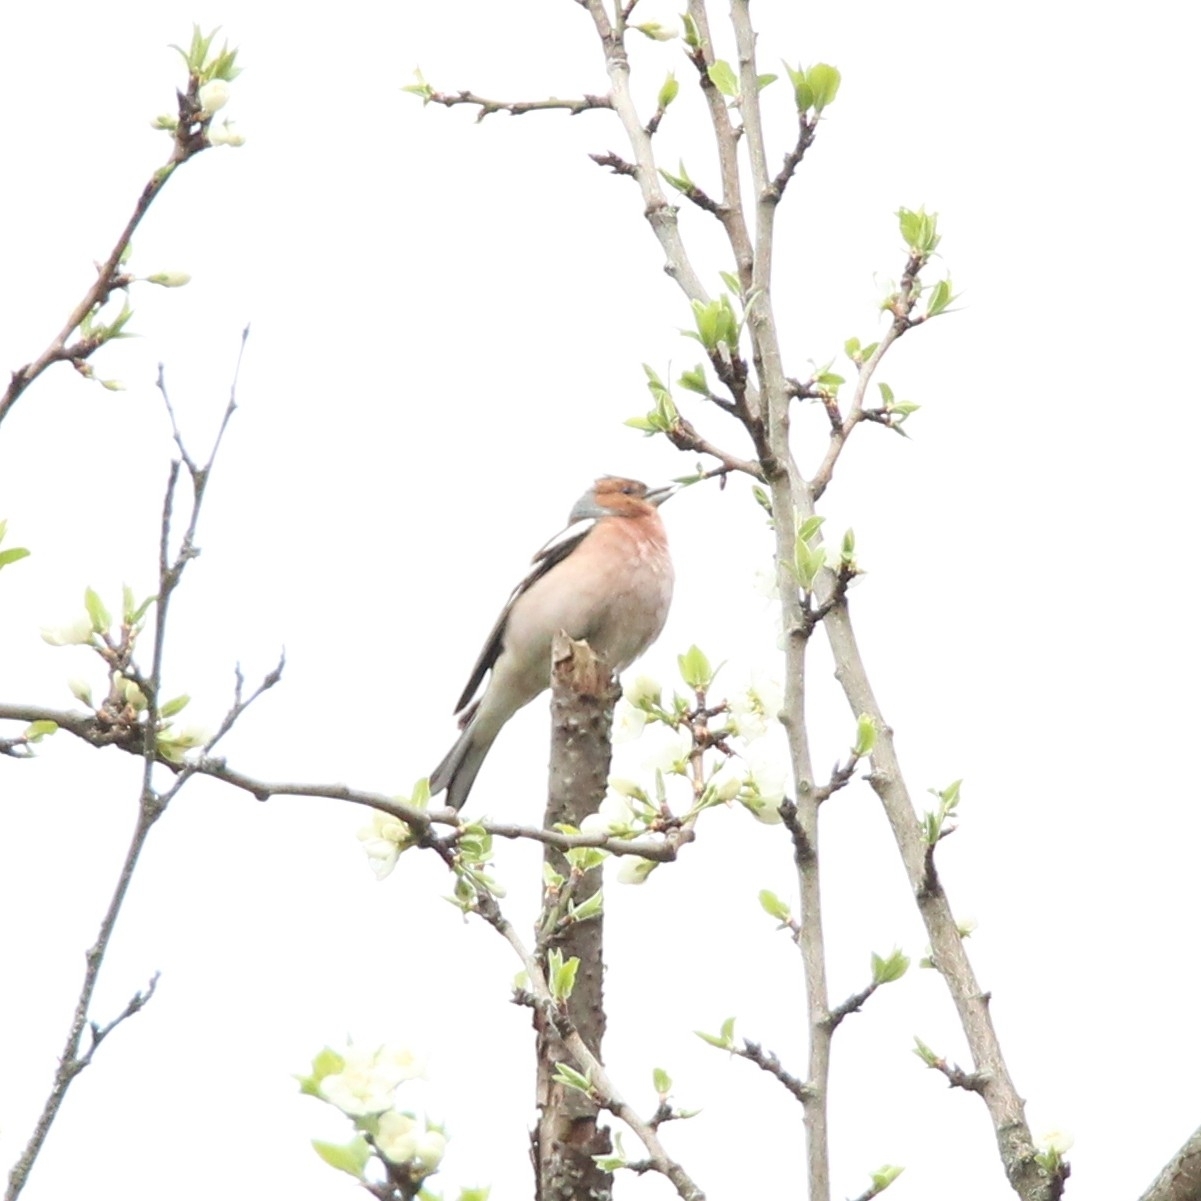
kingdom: Animalia
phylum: Chordata
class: Aves
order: Passeriformes
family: Fringillidae
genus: Fringilla
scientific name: Fringilla coelebs
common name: Common chaffinch
